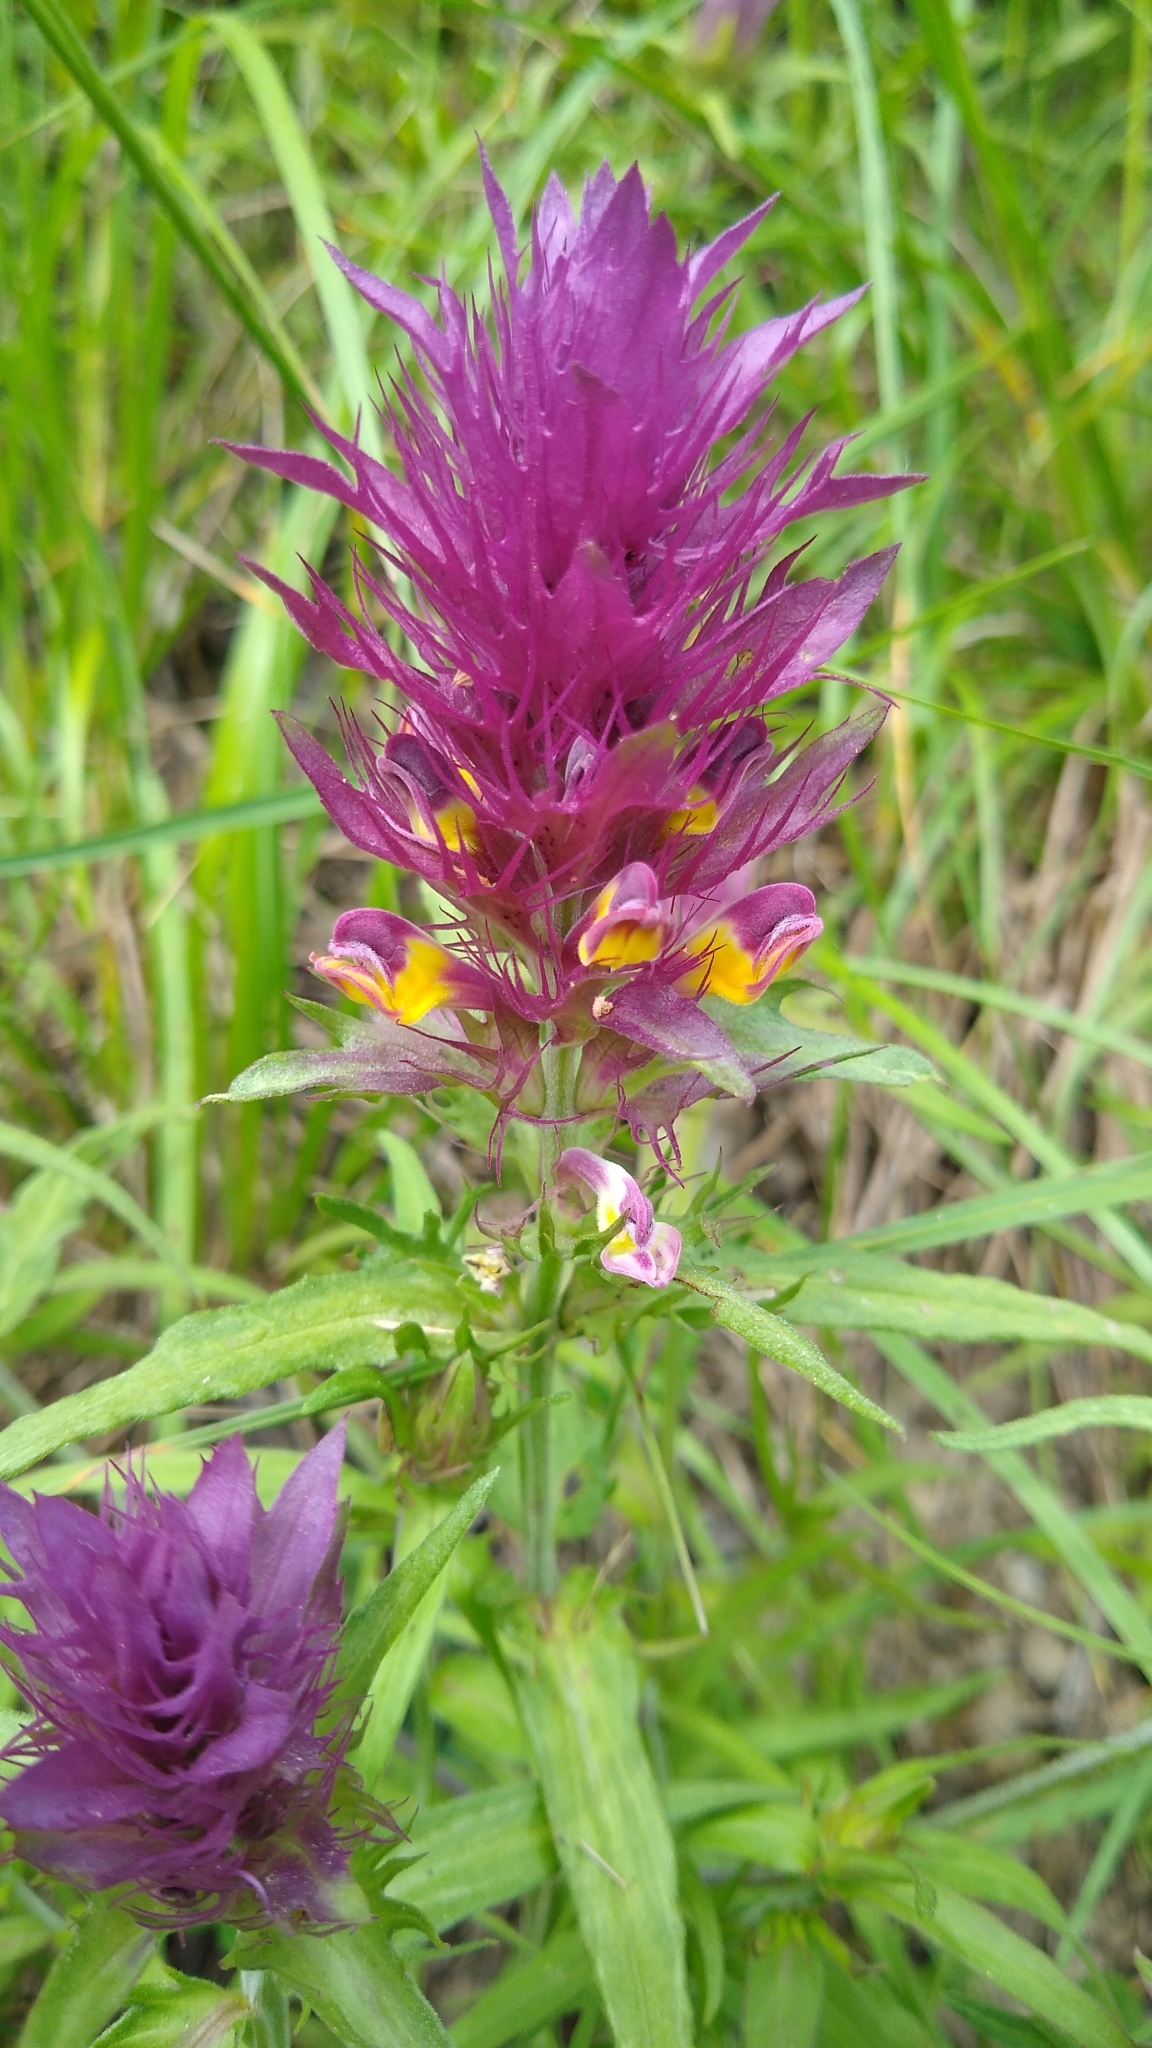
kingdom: Plantae
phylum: Tracheophyta
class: Magnoliopsida
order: Lamiales
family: Orobanchaceae
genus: Melampyrum
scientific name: Melampyrum arvense
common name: Field cow-wheat
